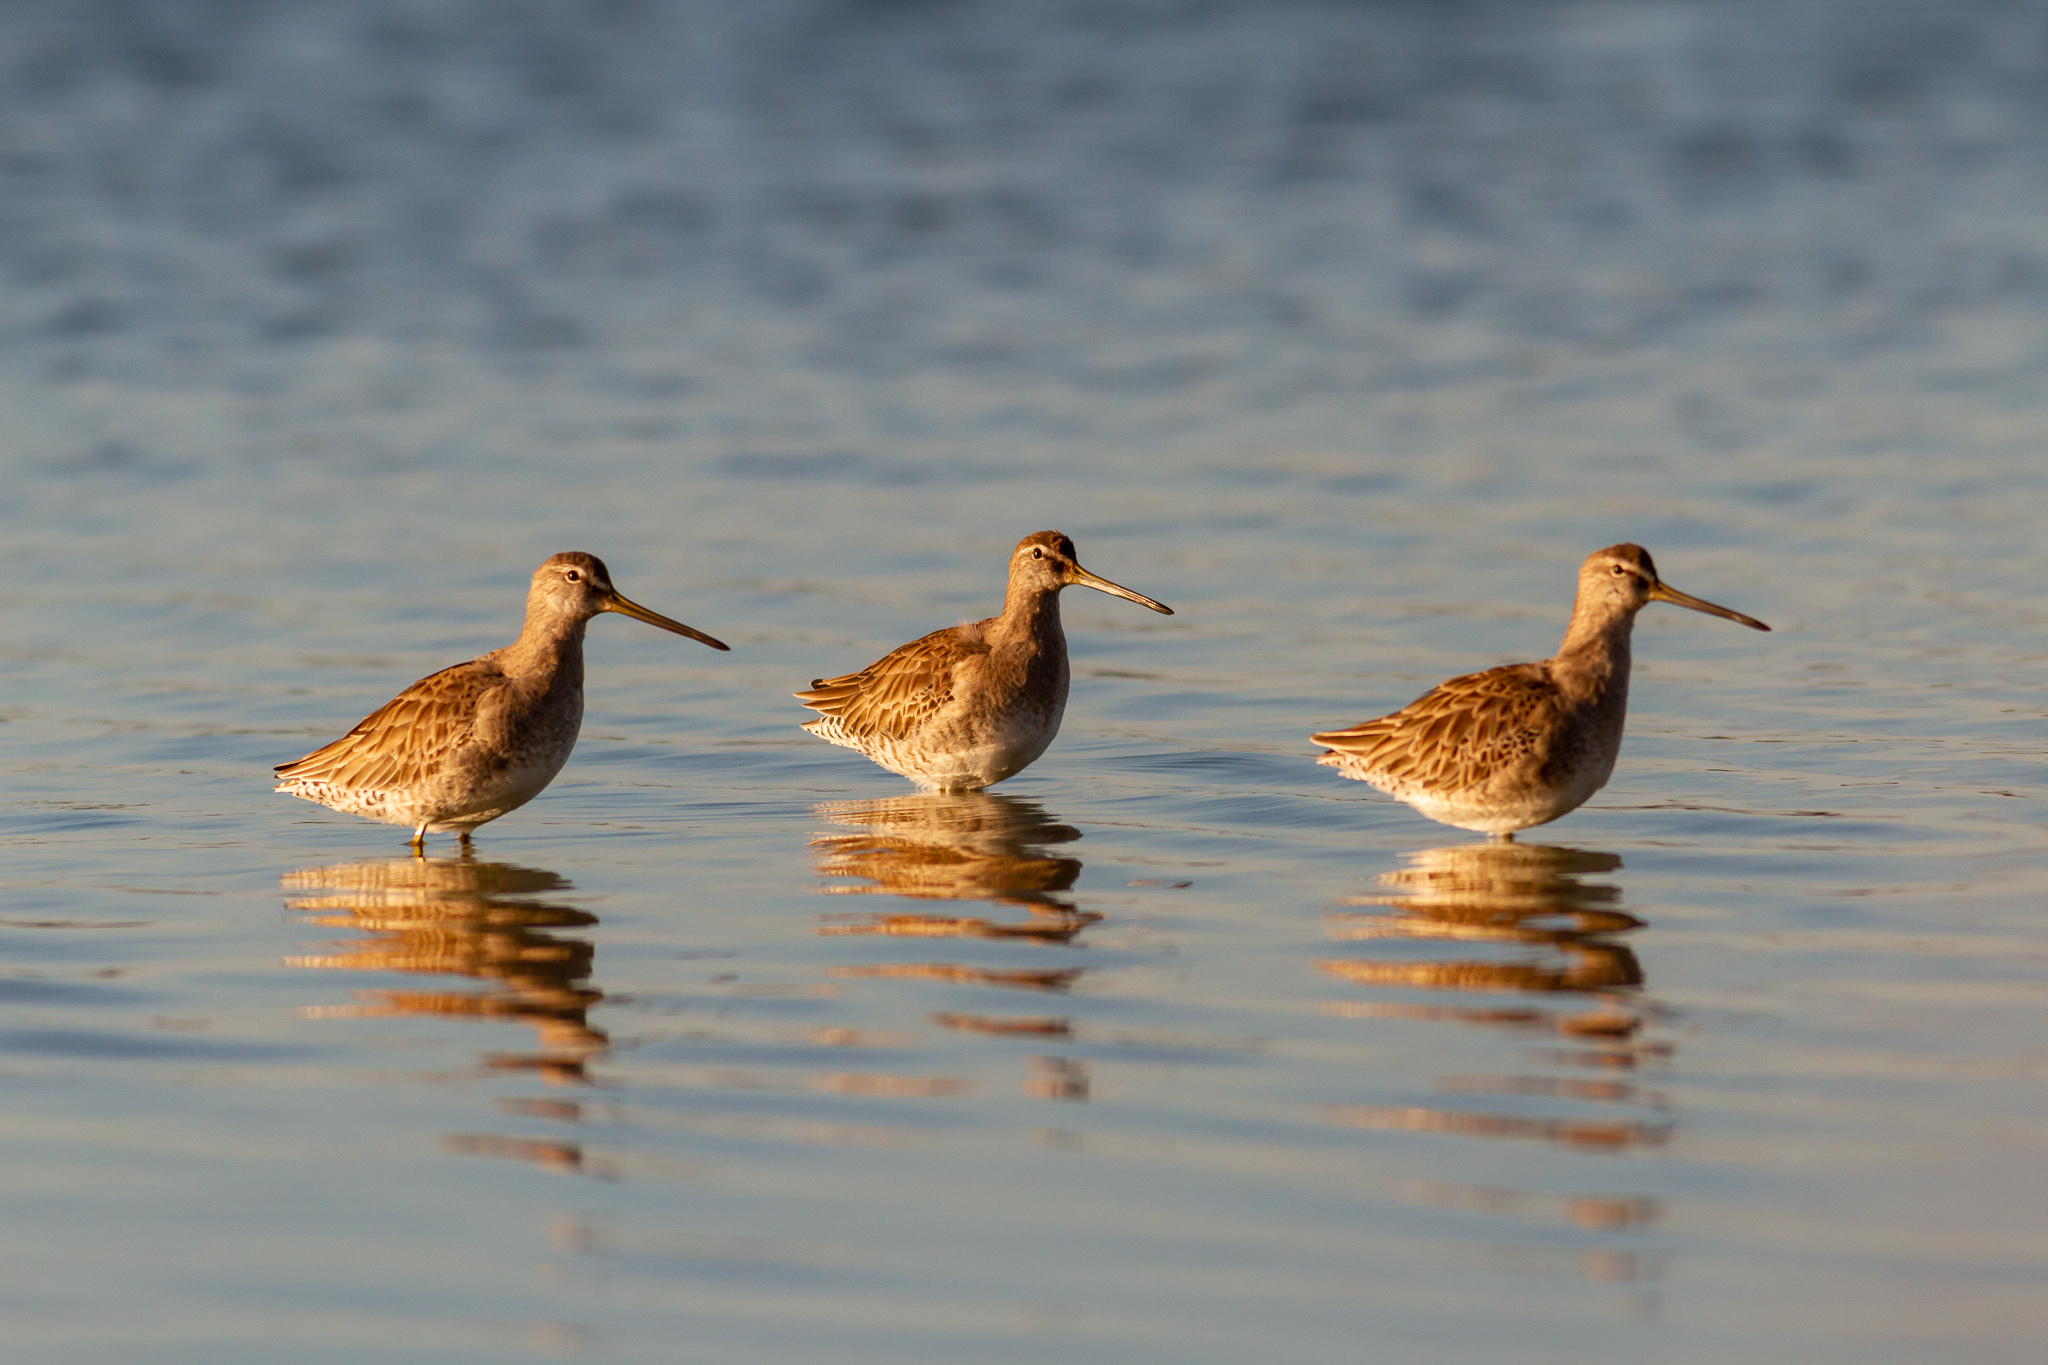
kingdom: Animalia
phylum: Chordata
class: Aves
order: Charadriiformes
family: Scolopacidae
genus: Limnodromus
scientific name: Limnodromus scolopaceus
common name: Long-billed dowitcher
